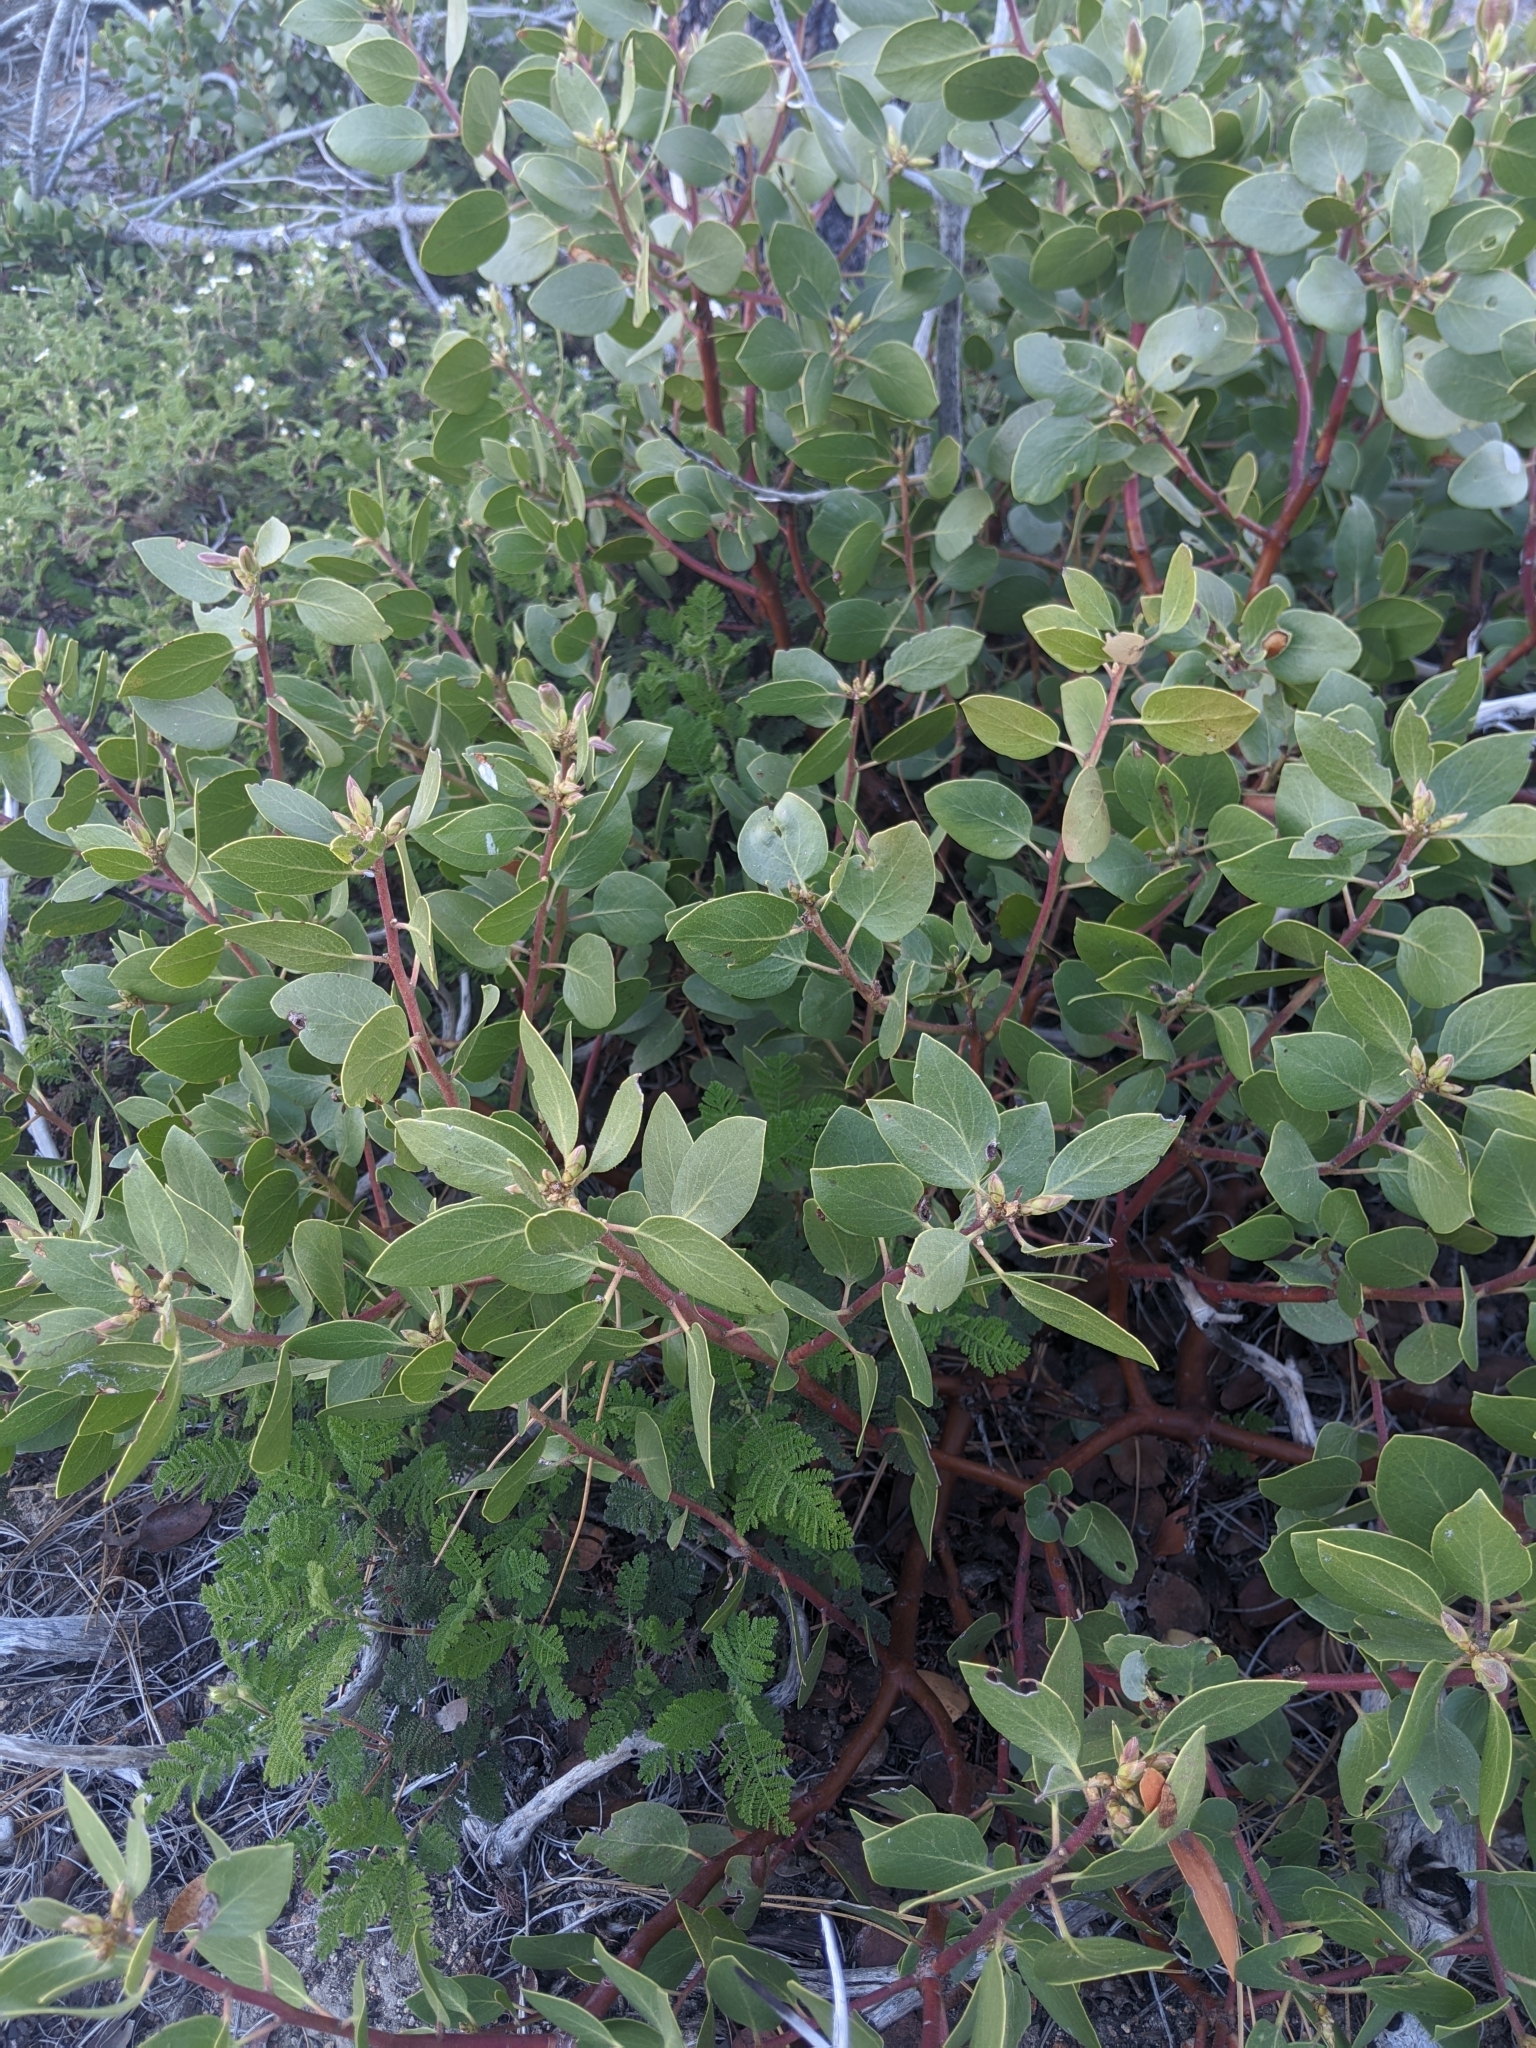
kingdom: Plantae
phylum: Tracheophyta
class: Magnoliopsida
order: Ericales
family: Ericaceae
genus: Arctostaphylos
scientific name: Arctostaphylos patula
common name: Green-leaf manzanita
